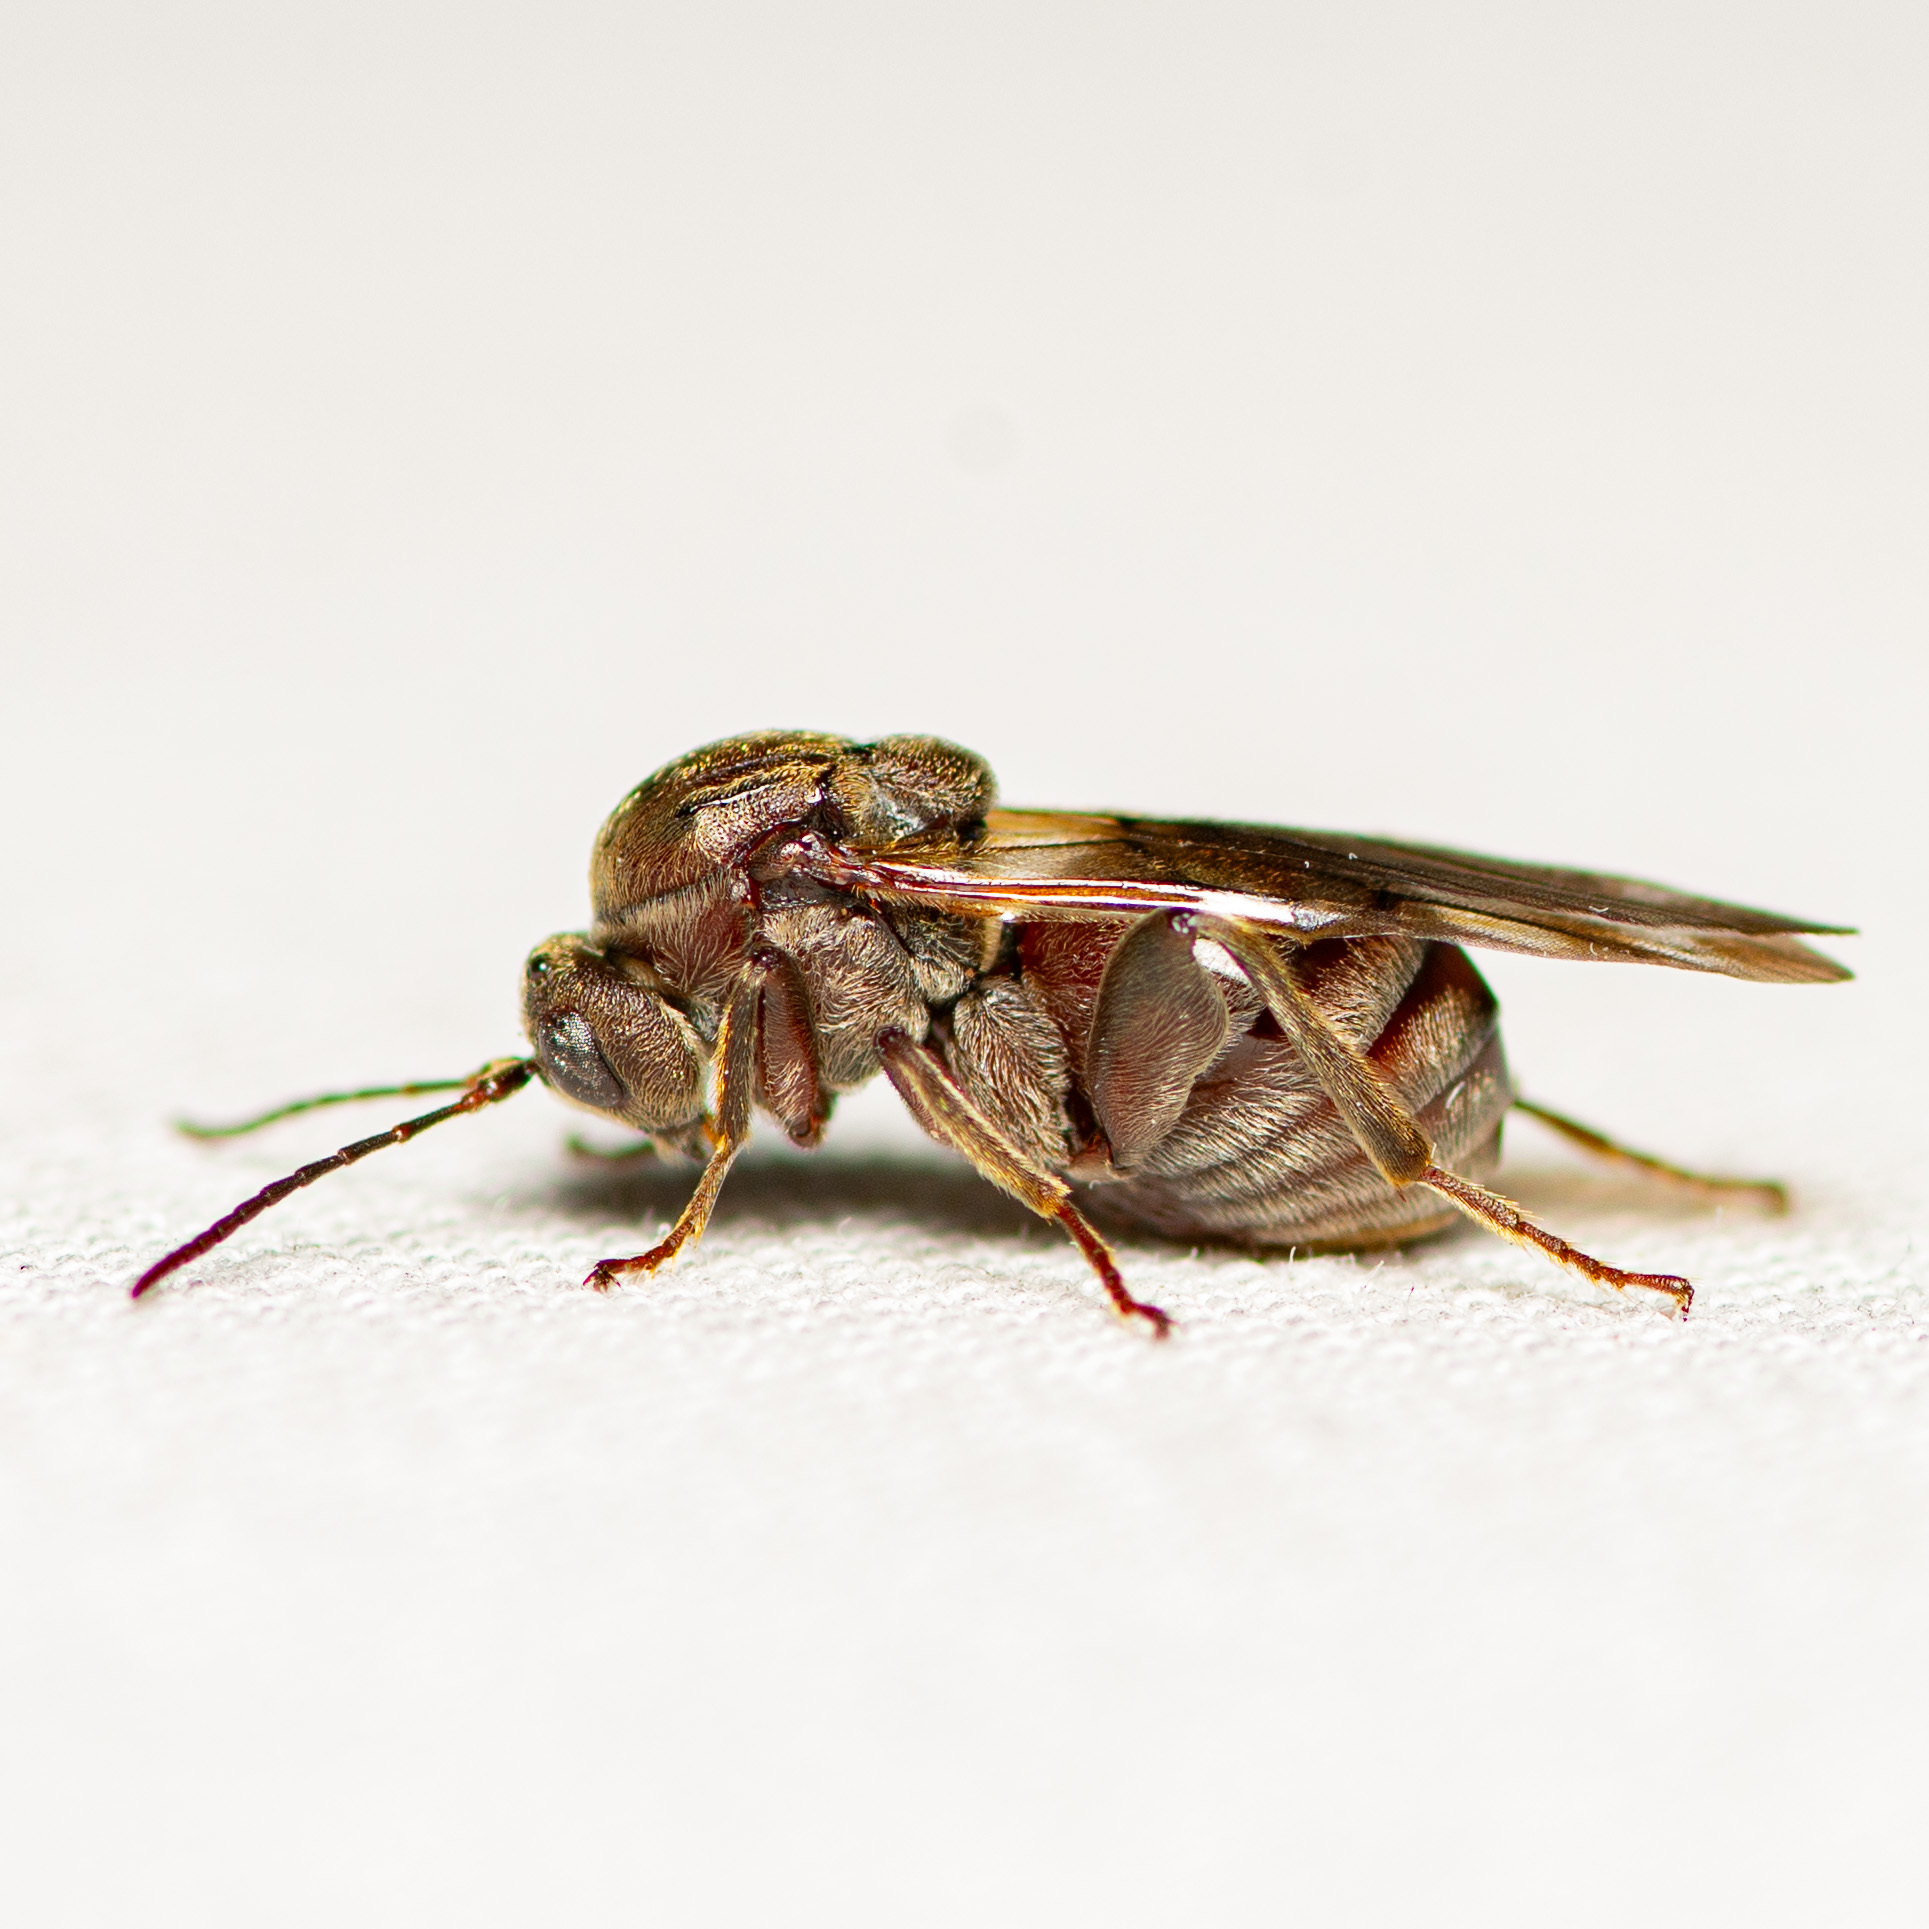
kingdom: Animalia
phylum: Arthropoda
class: Insecta
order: Hymenoptera
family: Cynipidae
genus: Odontocynips
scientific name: Odontocynips nebulosa
